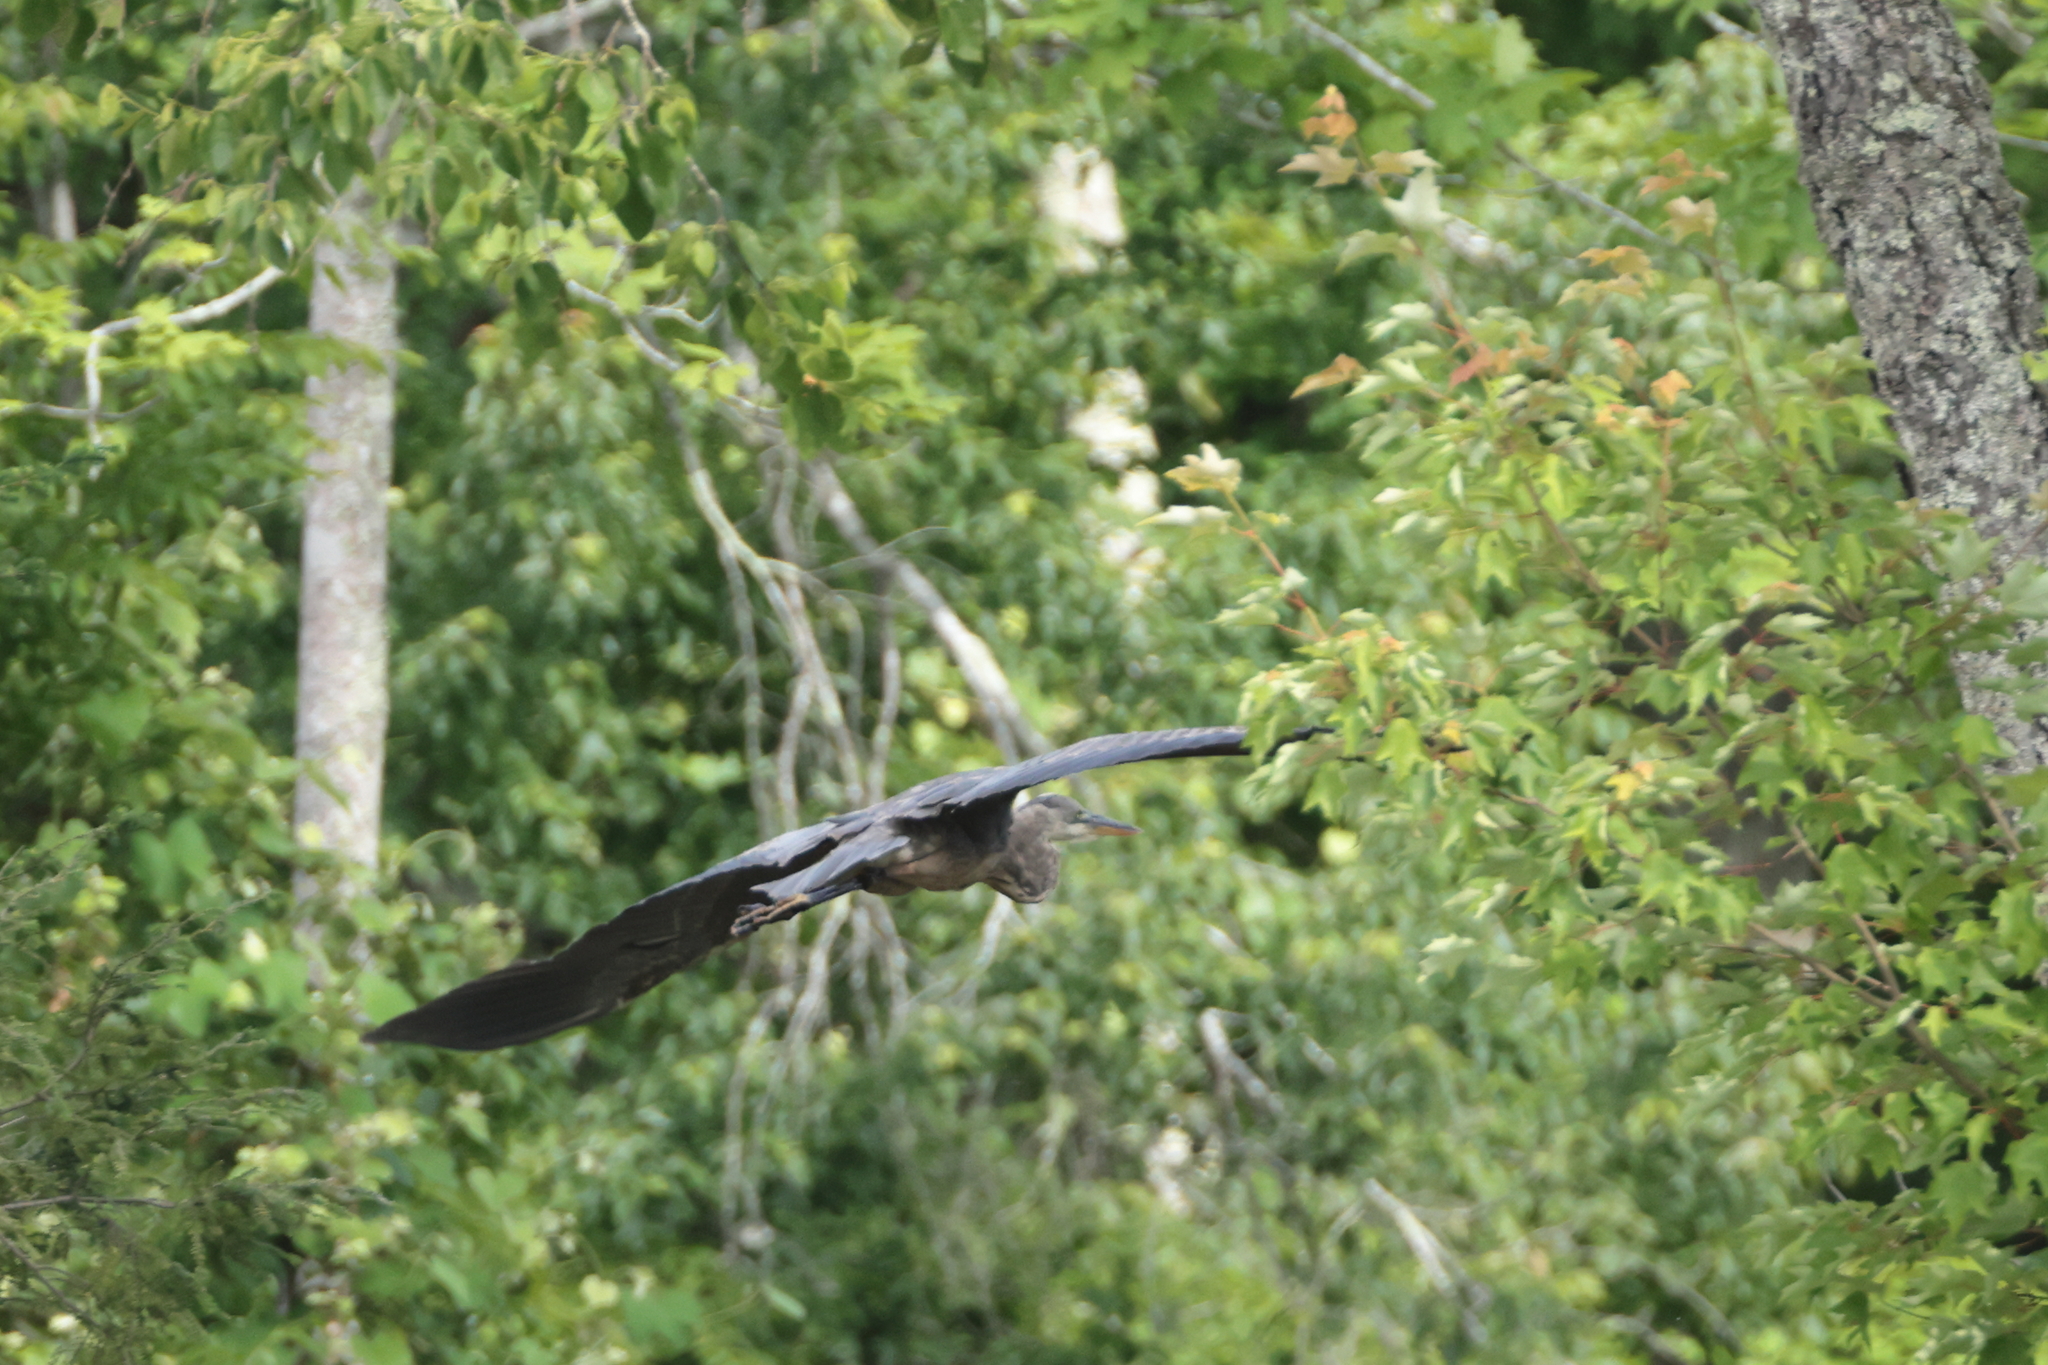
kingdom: Animalia
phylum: Chordata
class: Aves
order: Pelecaniformes
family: Ardeidae
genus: Ardea
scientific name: Ardea herodias
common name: Great blue heron
